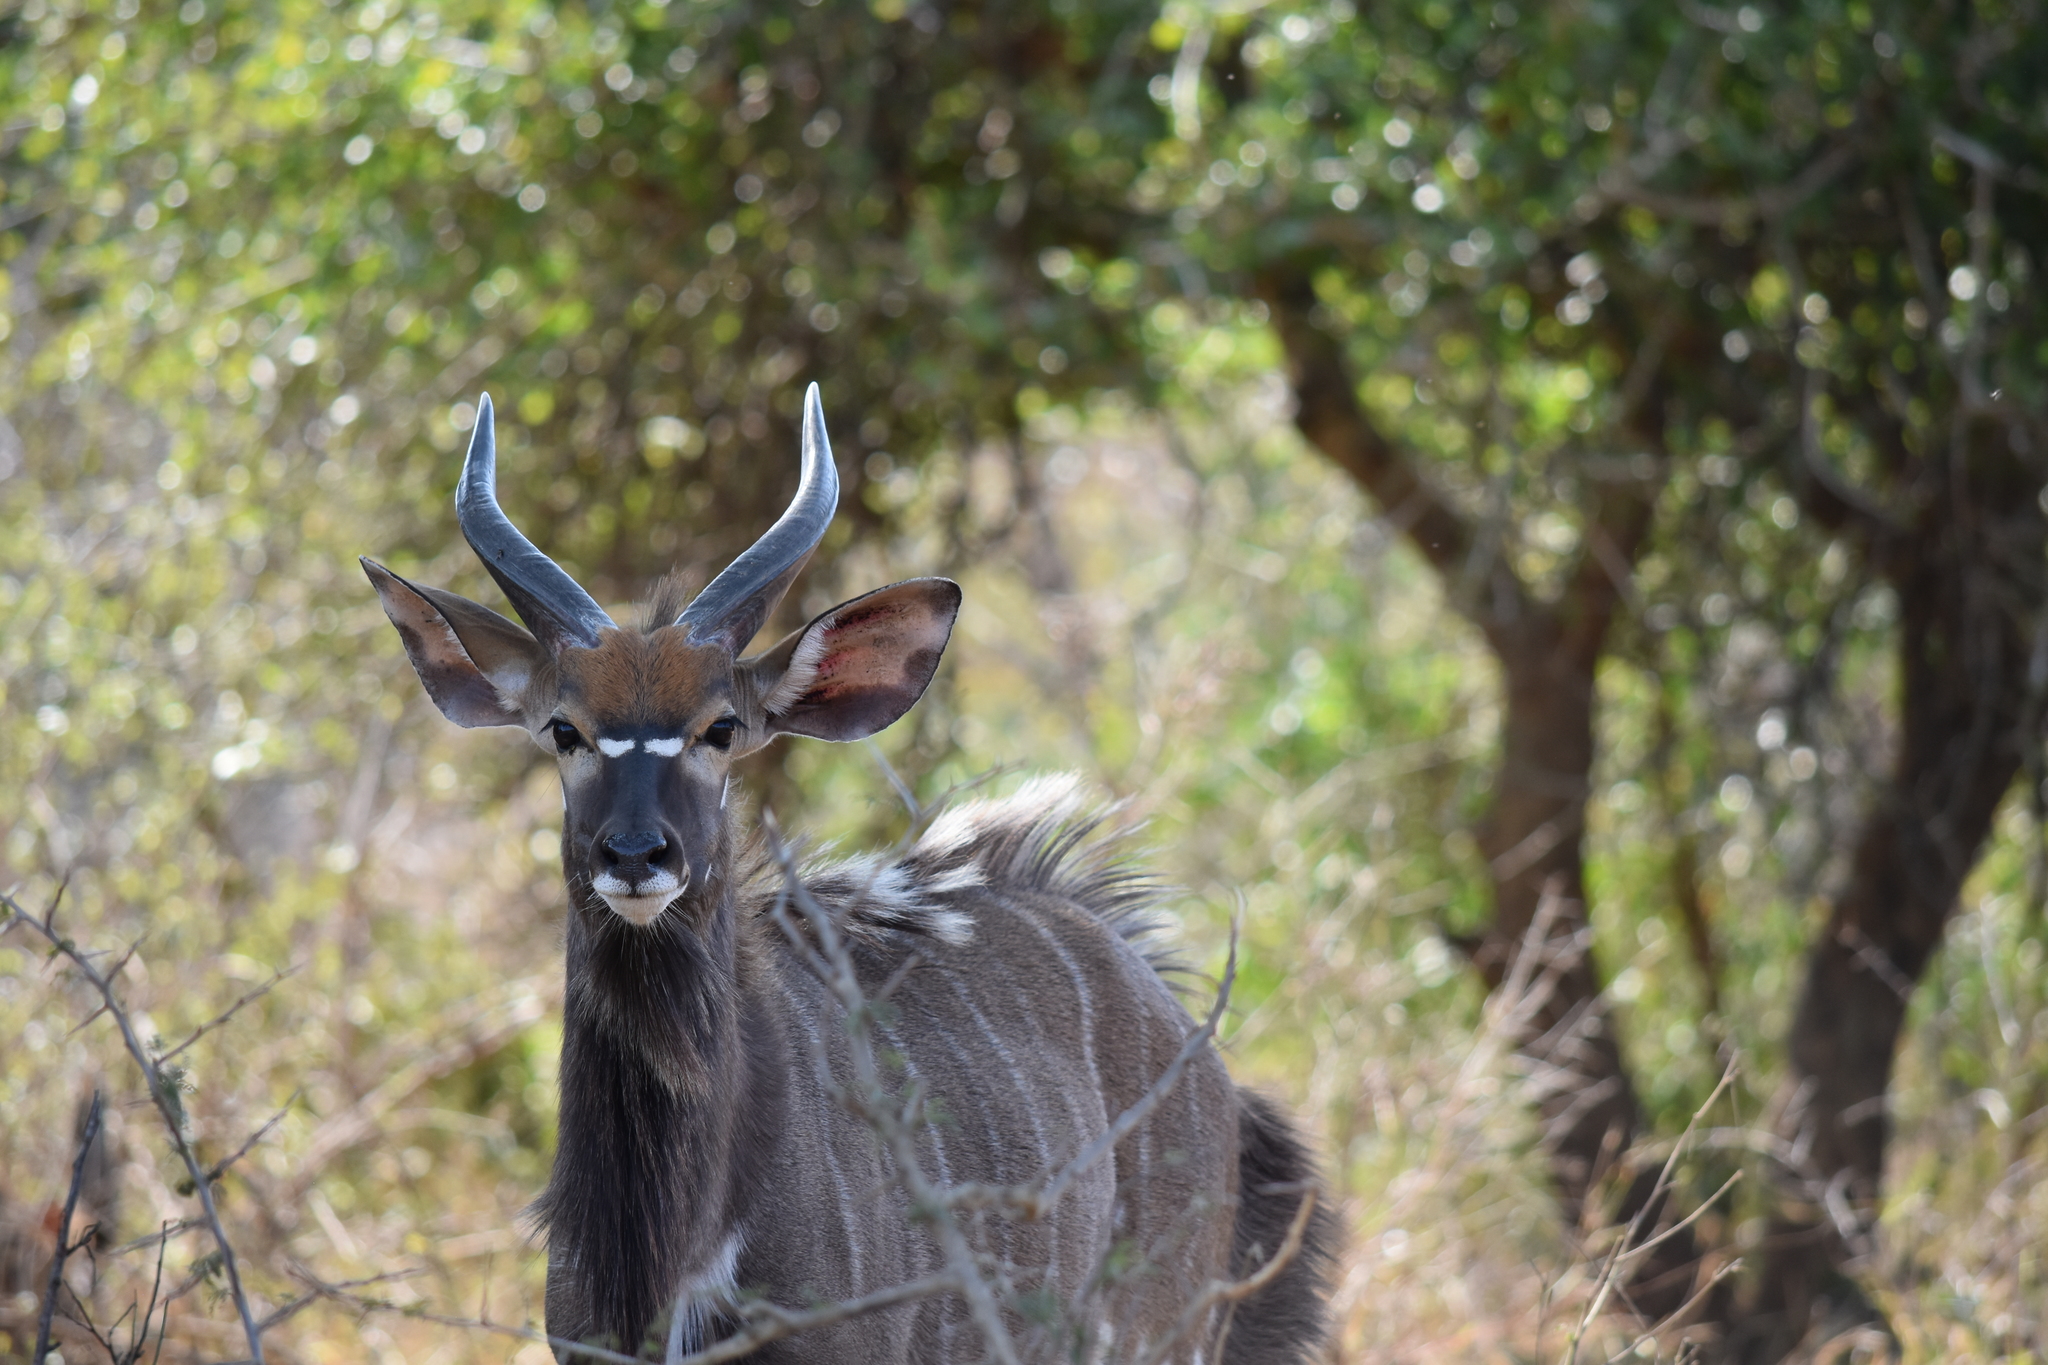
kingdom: Animalia
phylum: Chordata
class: Mammalia
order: Artiodactyla
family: Bovidae
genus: Tragelaphus
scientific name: Tragelaphus angasii
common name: Nyala
